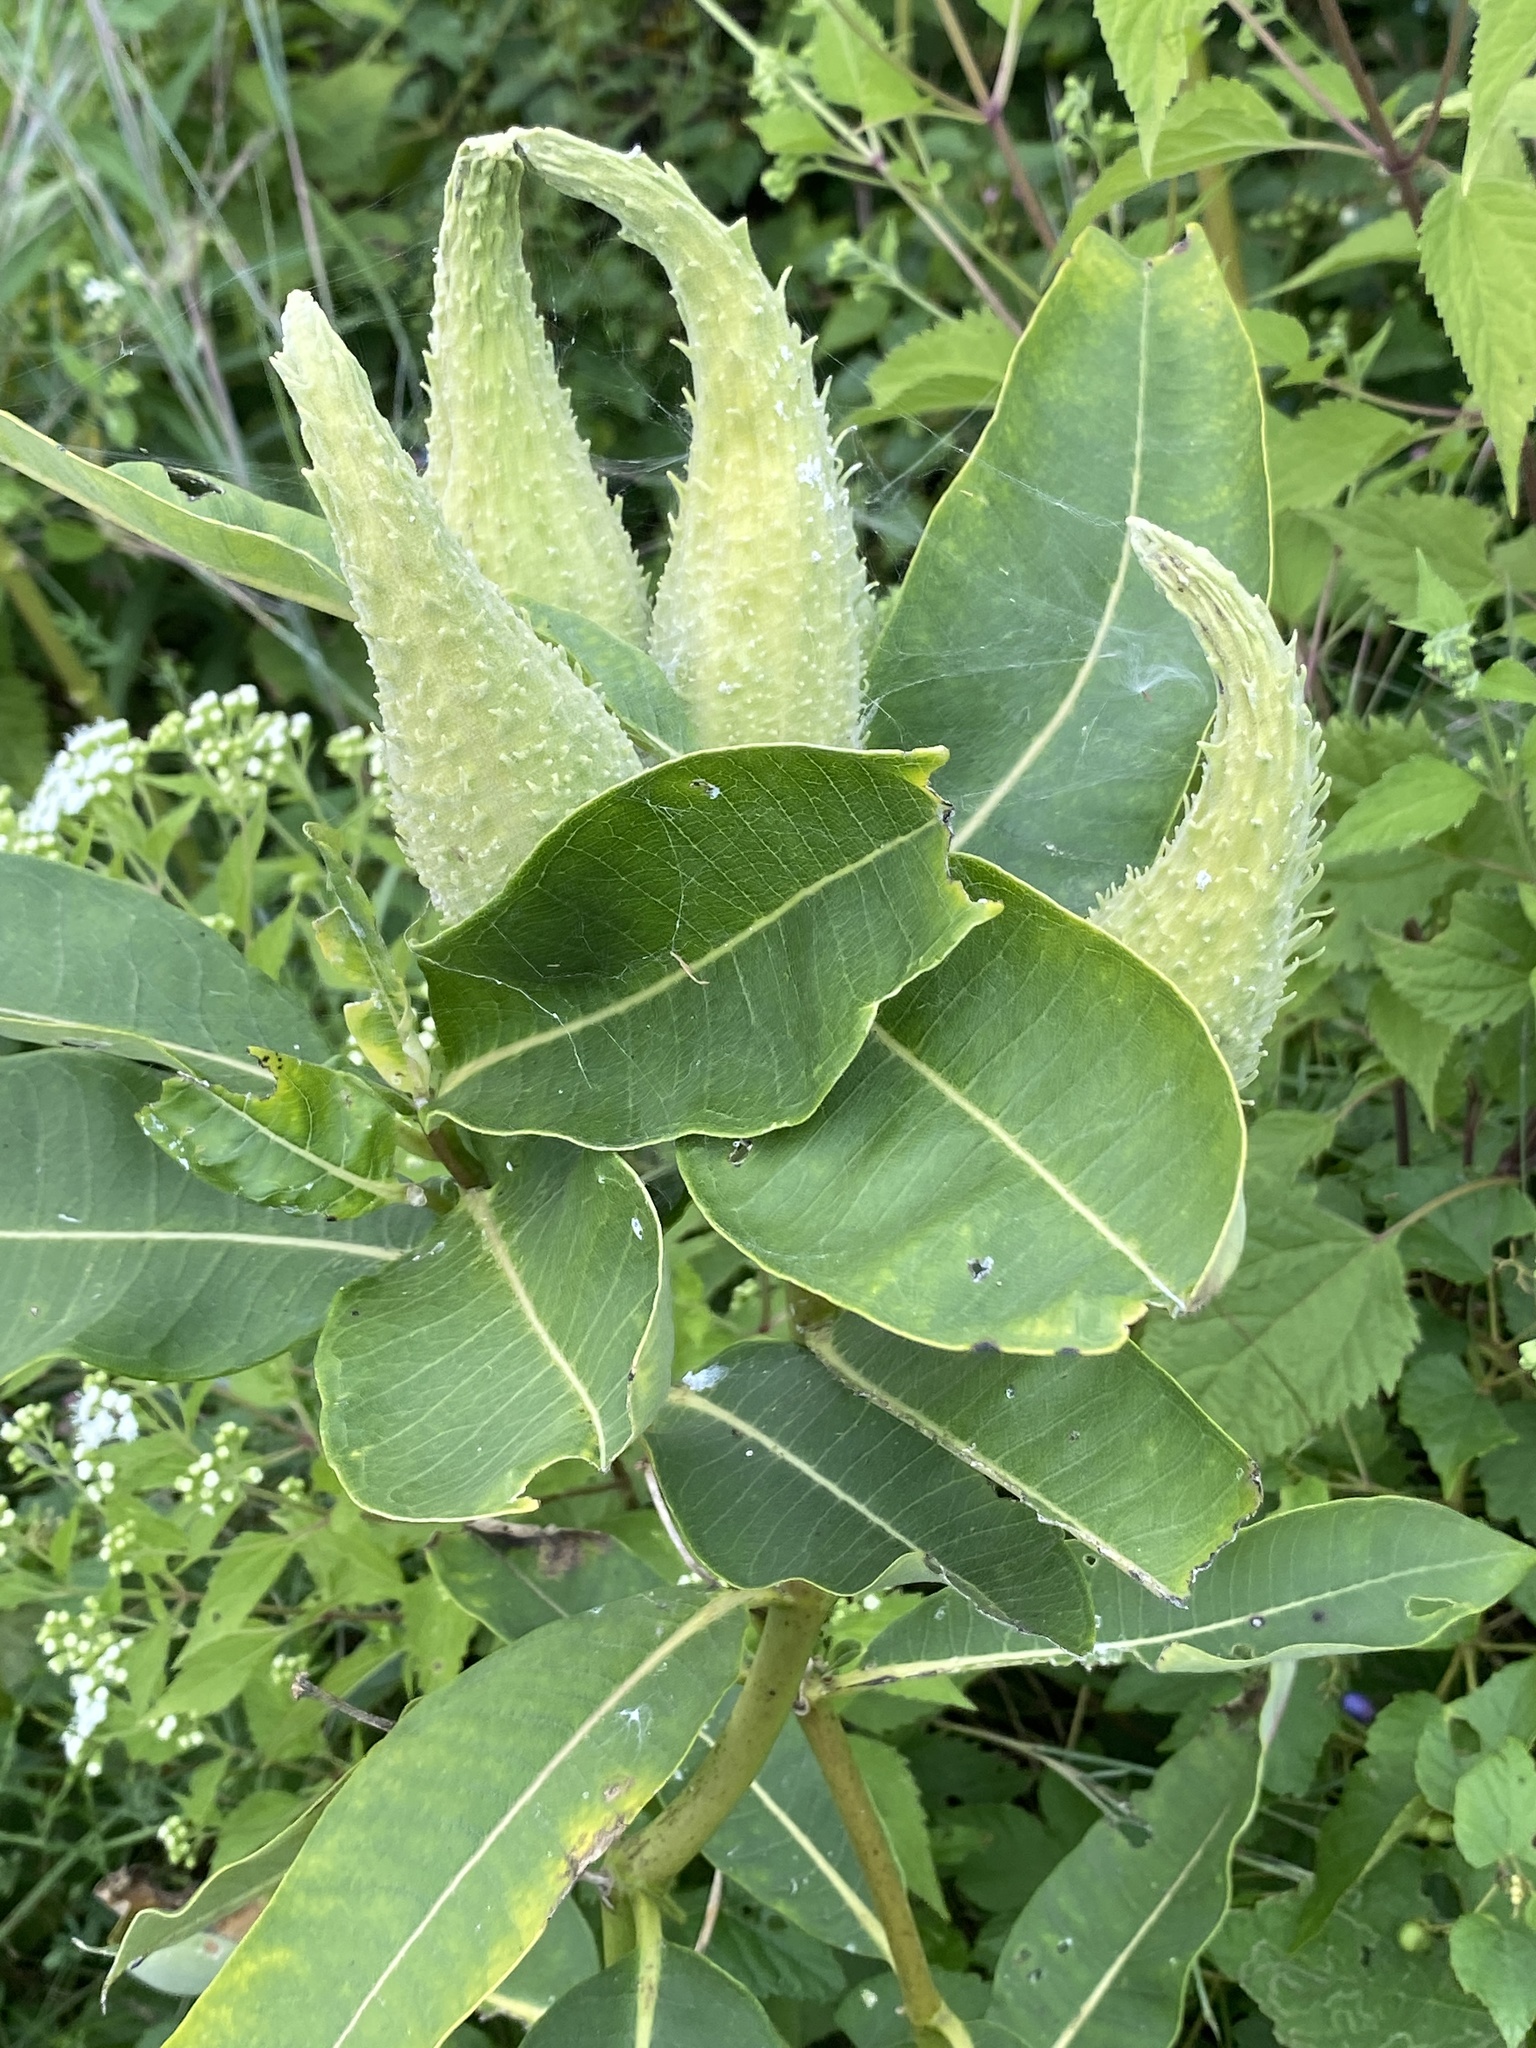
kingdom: Plantae
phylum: Tracheophyta
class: Magnoliopsida
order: Gentianales
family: Apocynaceae
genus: Asclepias
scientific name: Asclepias syriaca
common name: Common milkweed
